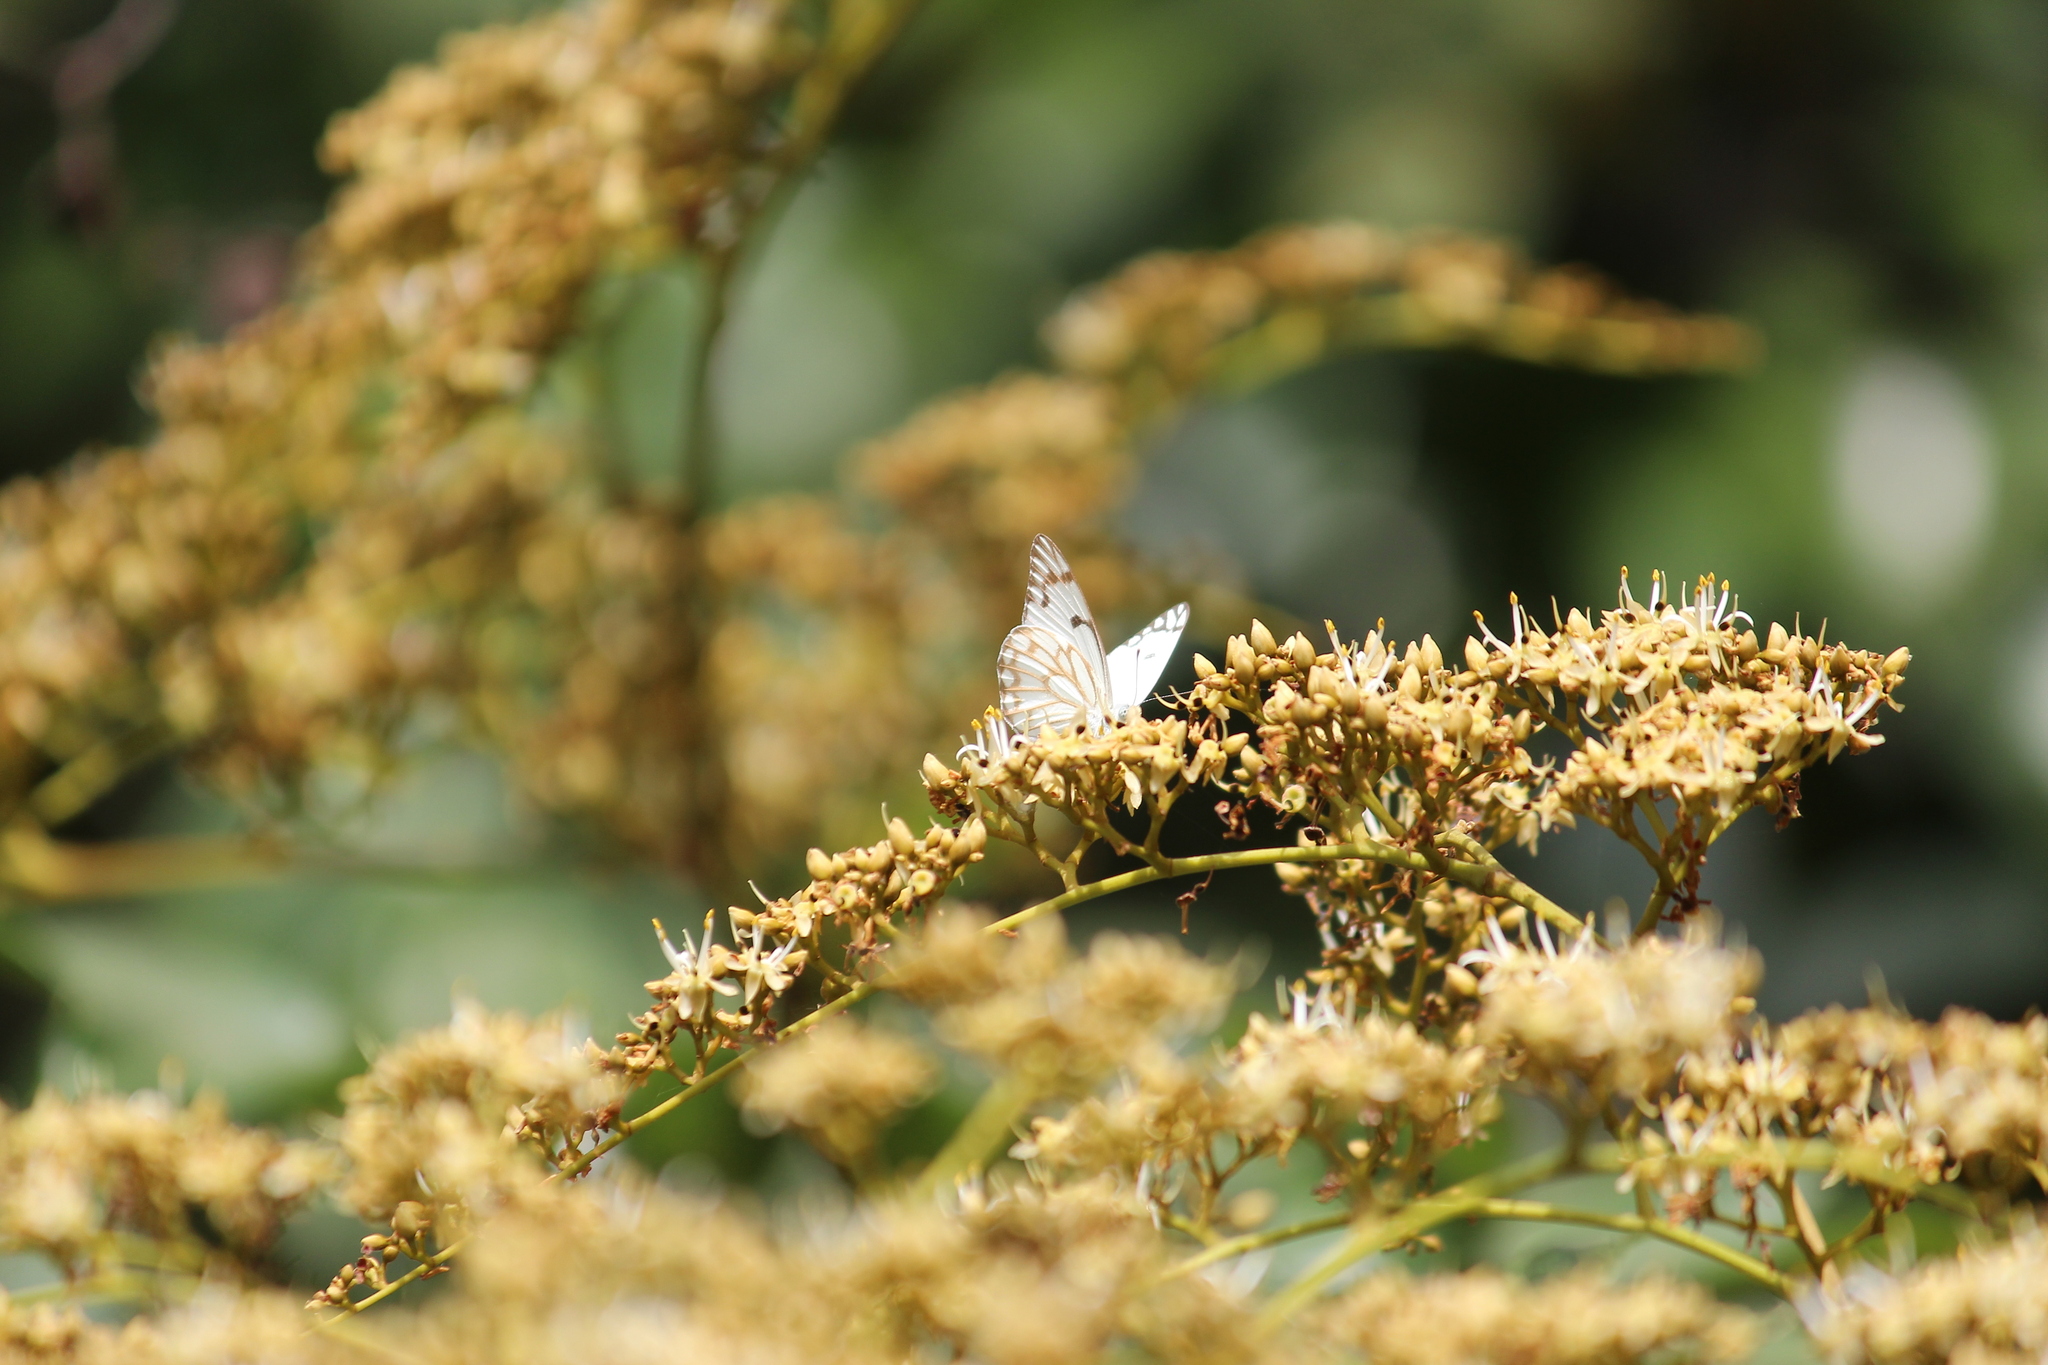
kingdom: Animalia
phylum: Arthropoda
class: Insecta
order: Lepidoptera
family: Pieridae
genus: Belenois
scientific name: Belenois aurota
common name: Brown-veined white
